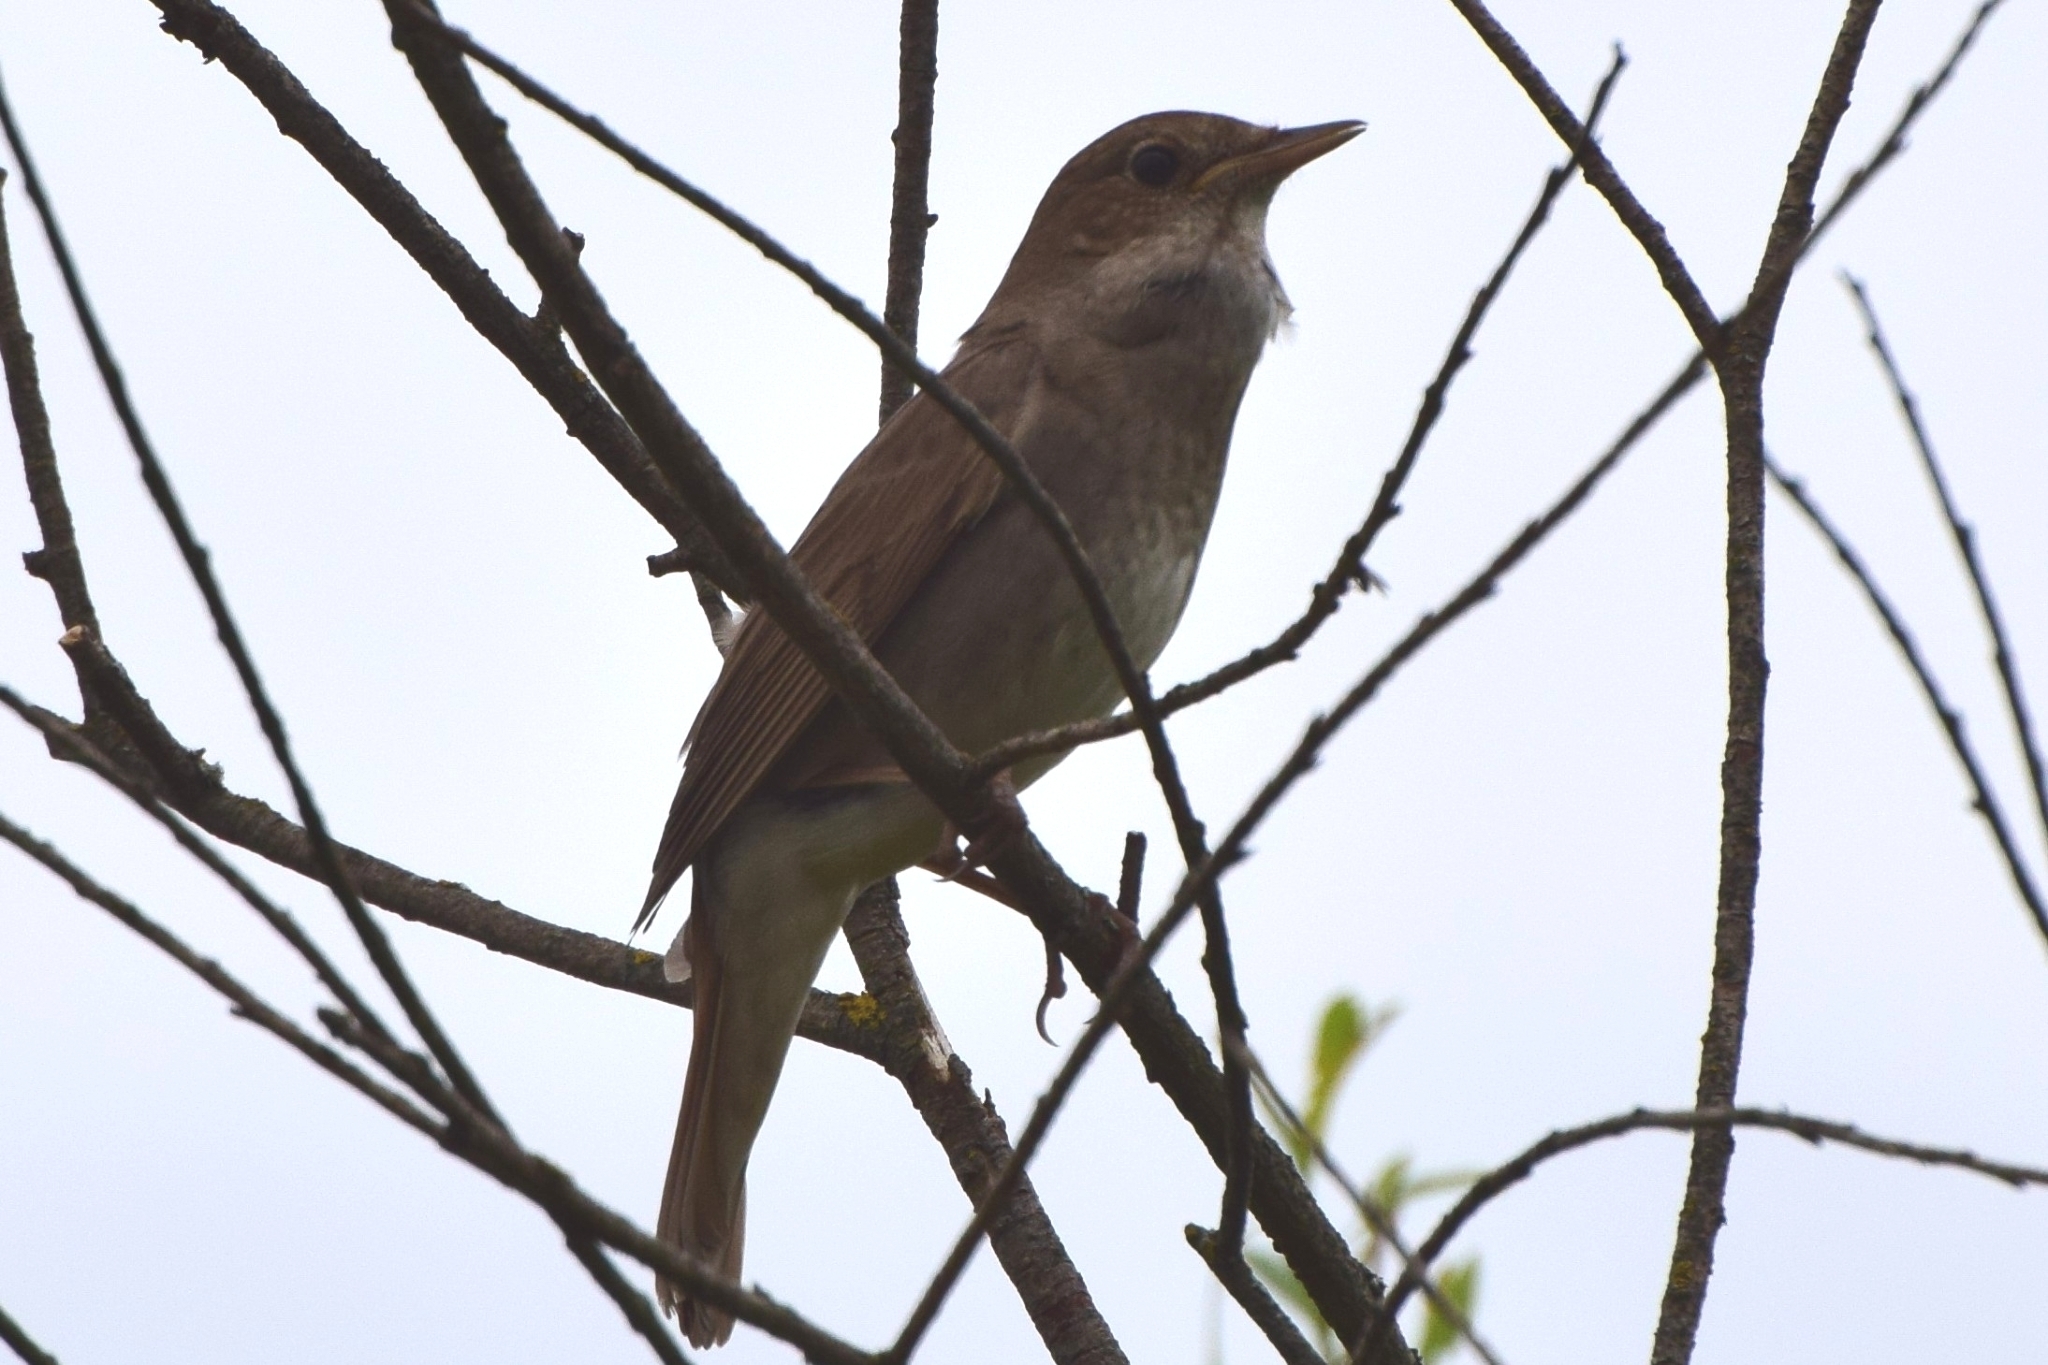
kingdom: Animalia
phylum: Chordata
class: Aves
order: Passeriformes
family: Muscicapidae
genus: Luscinia
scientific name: Luscinia luscinia
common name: Thrush nightingale
